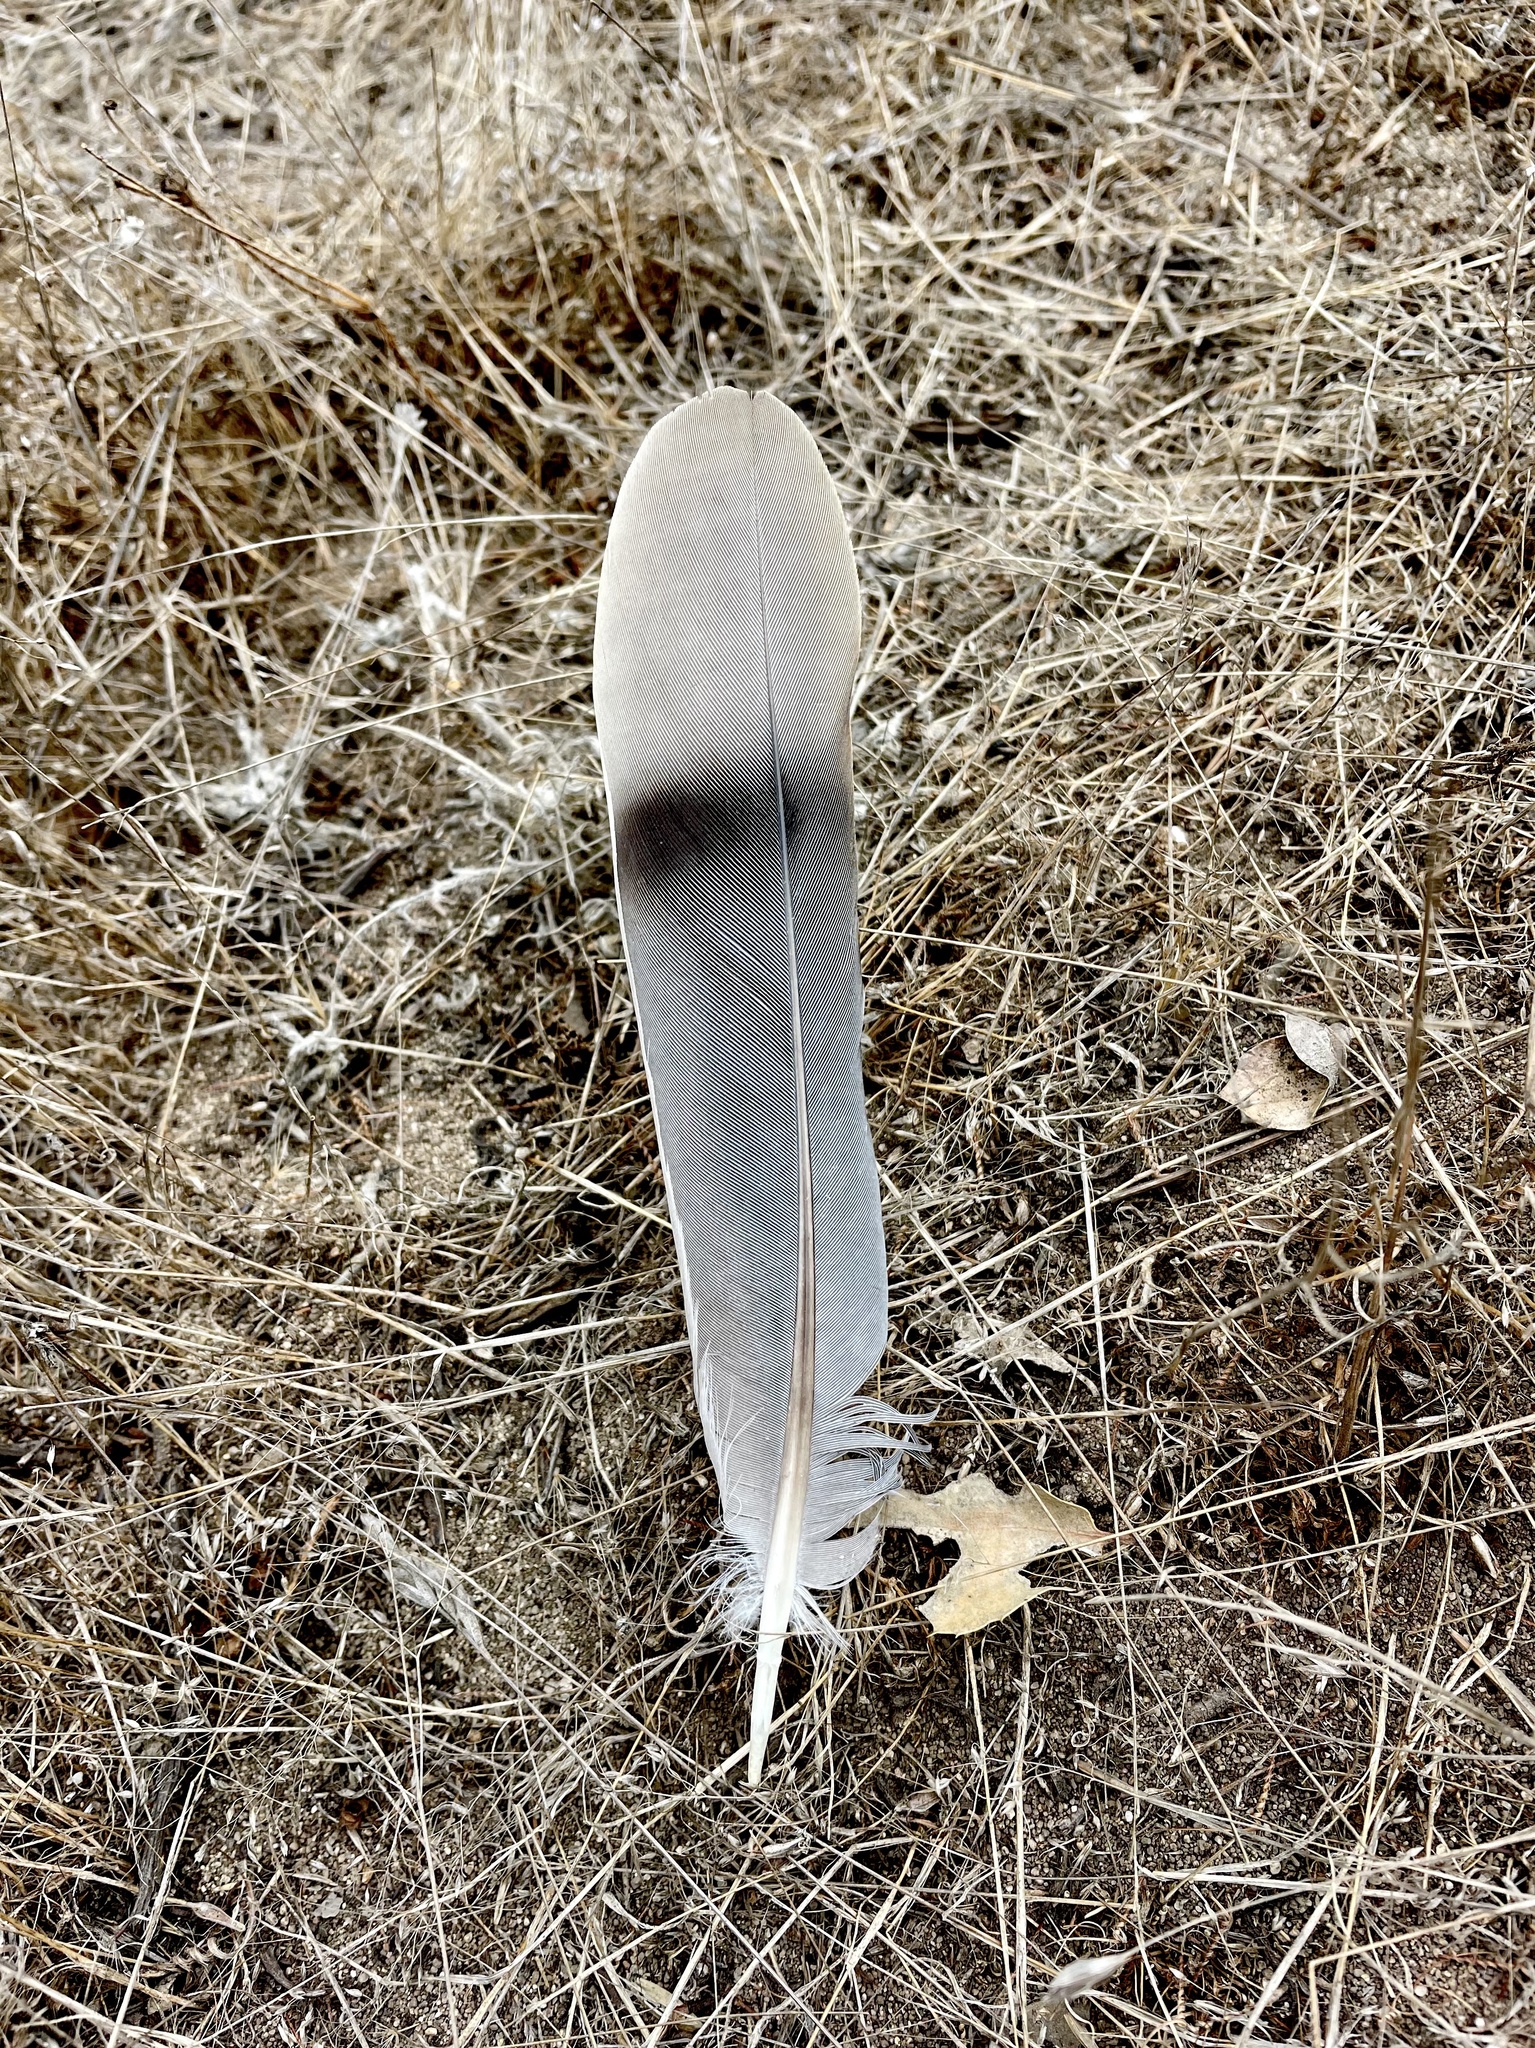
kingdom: Animalia
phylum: Chordata
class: Aves
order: Columbiformes
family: Columbidae
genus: Patagioenas
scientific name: Patagioenas fasciata
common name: Band-tailed pigeon
